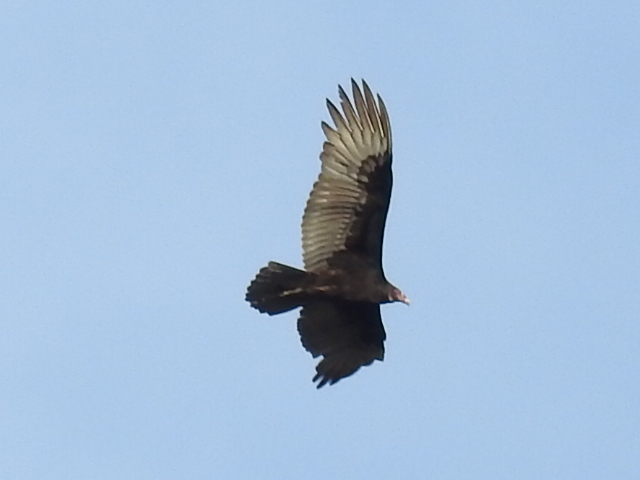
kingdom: Animalia
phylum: Chordata
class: Aves
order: Accipitriformes
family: Cathartidae
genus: Cathartes
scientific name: Cathartes aura
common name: Turkey vulture
